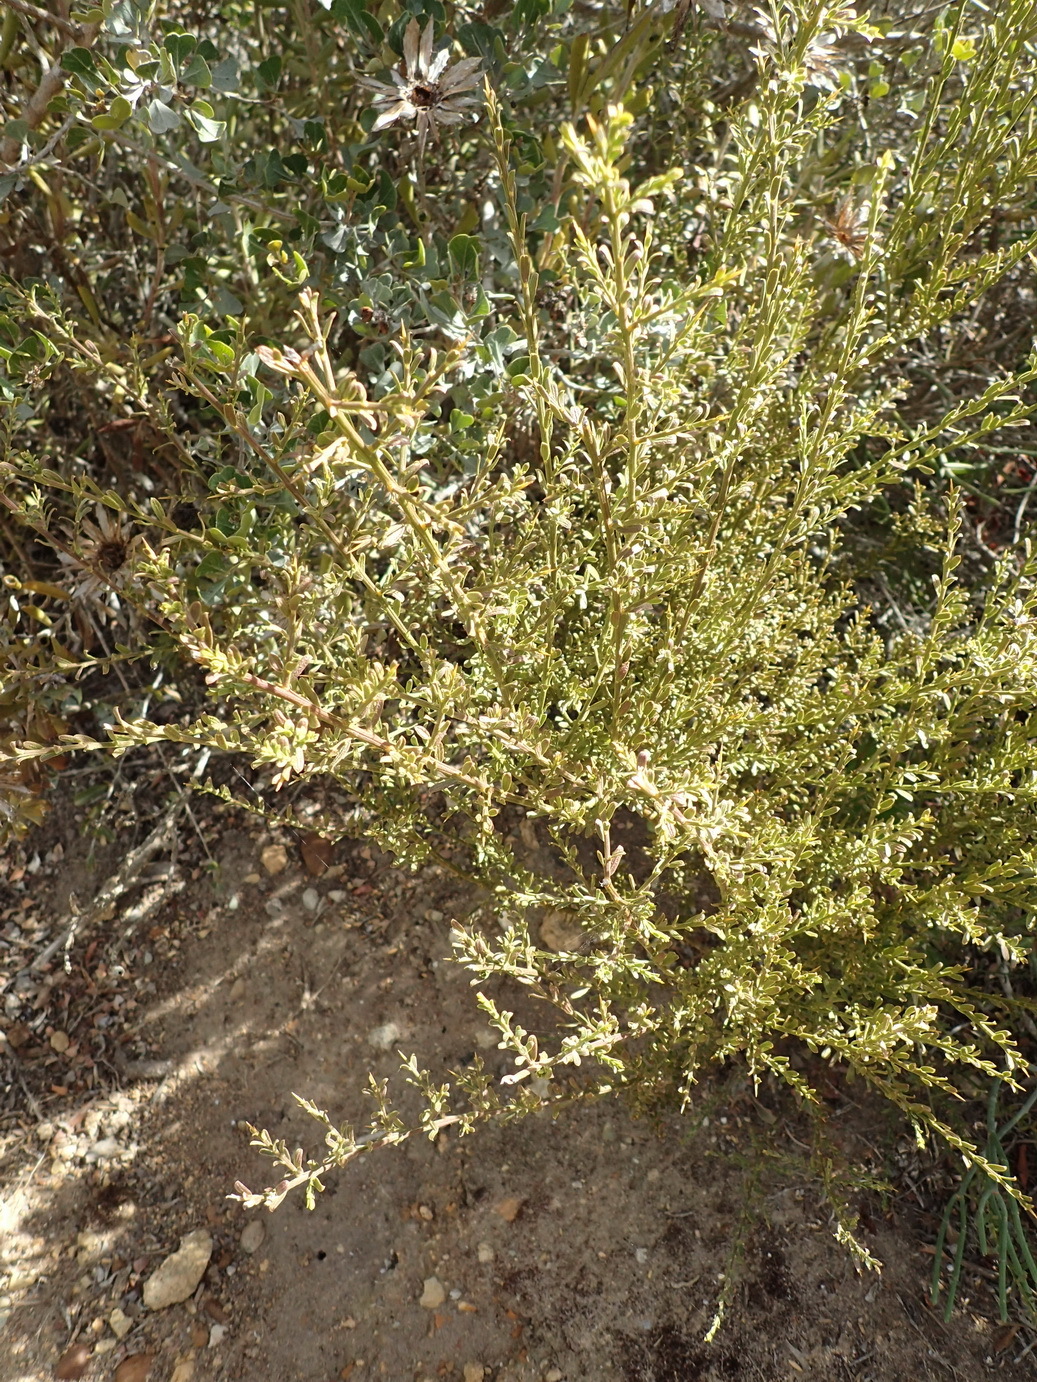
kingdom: Plantae
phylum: Tracheophyta
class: Magnoliopsida
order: Fabales
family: Polygalaceae
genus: Muraltia
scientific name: Muraltia spinosa
